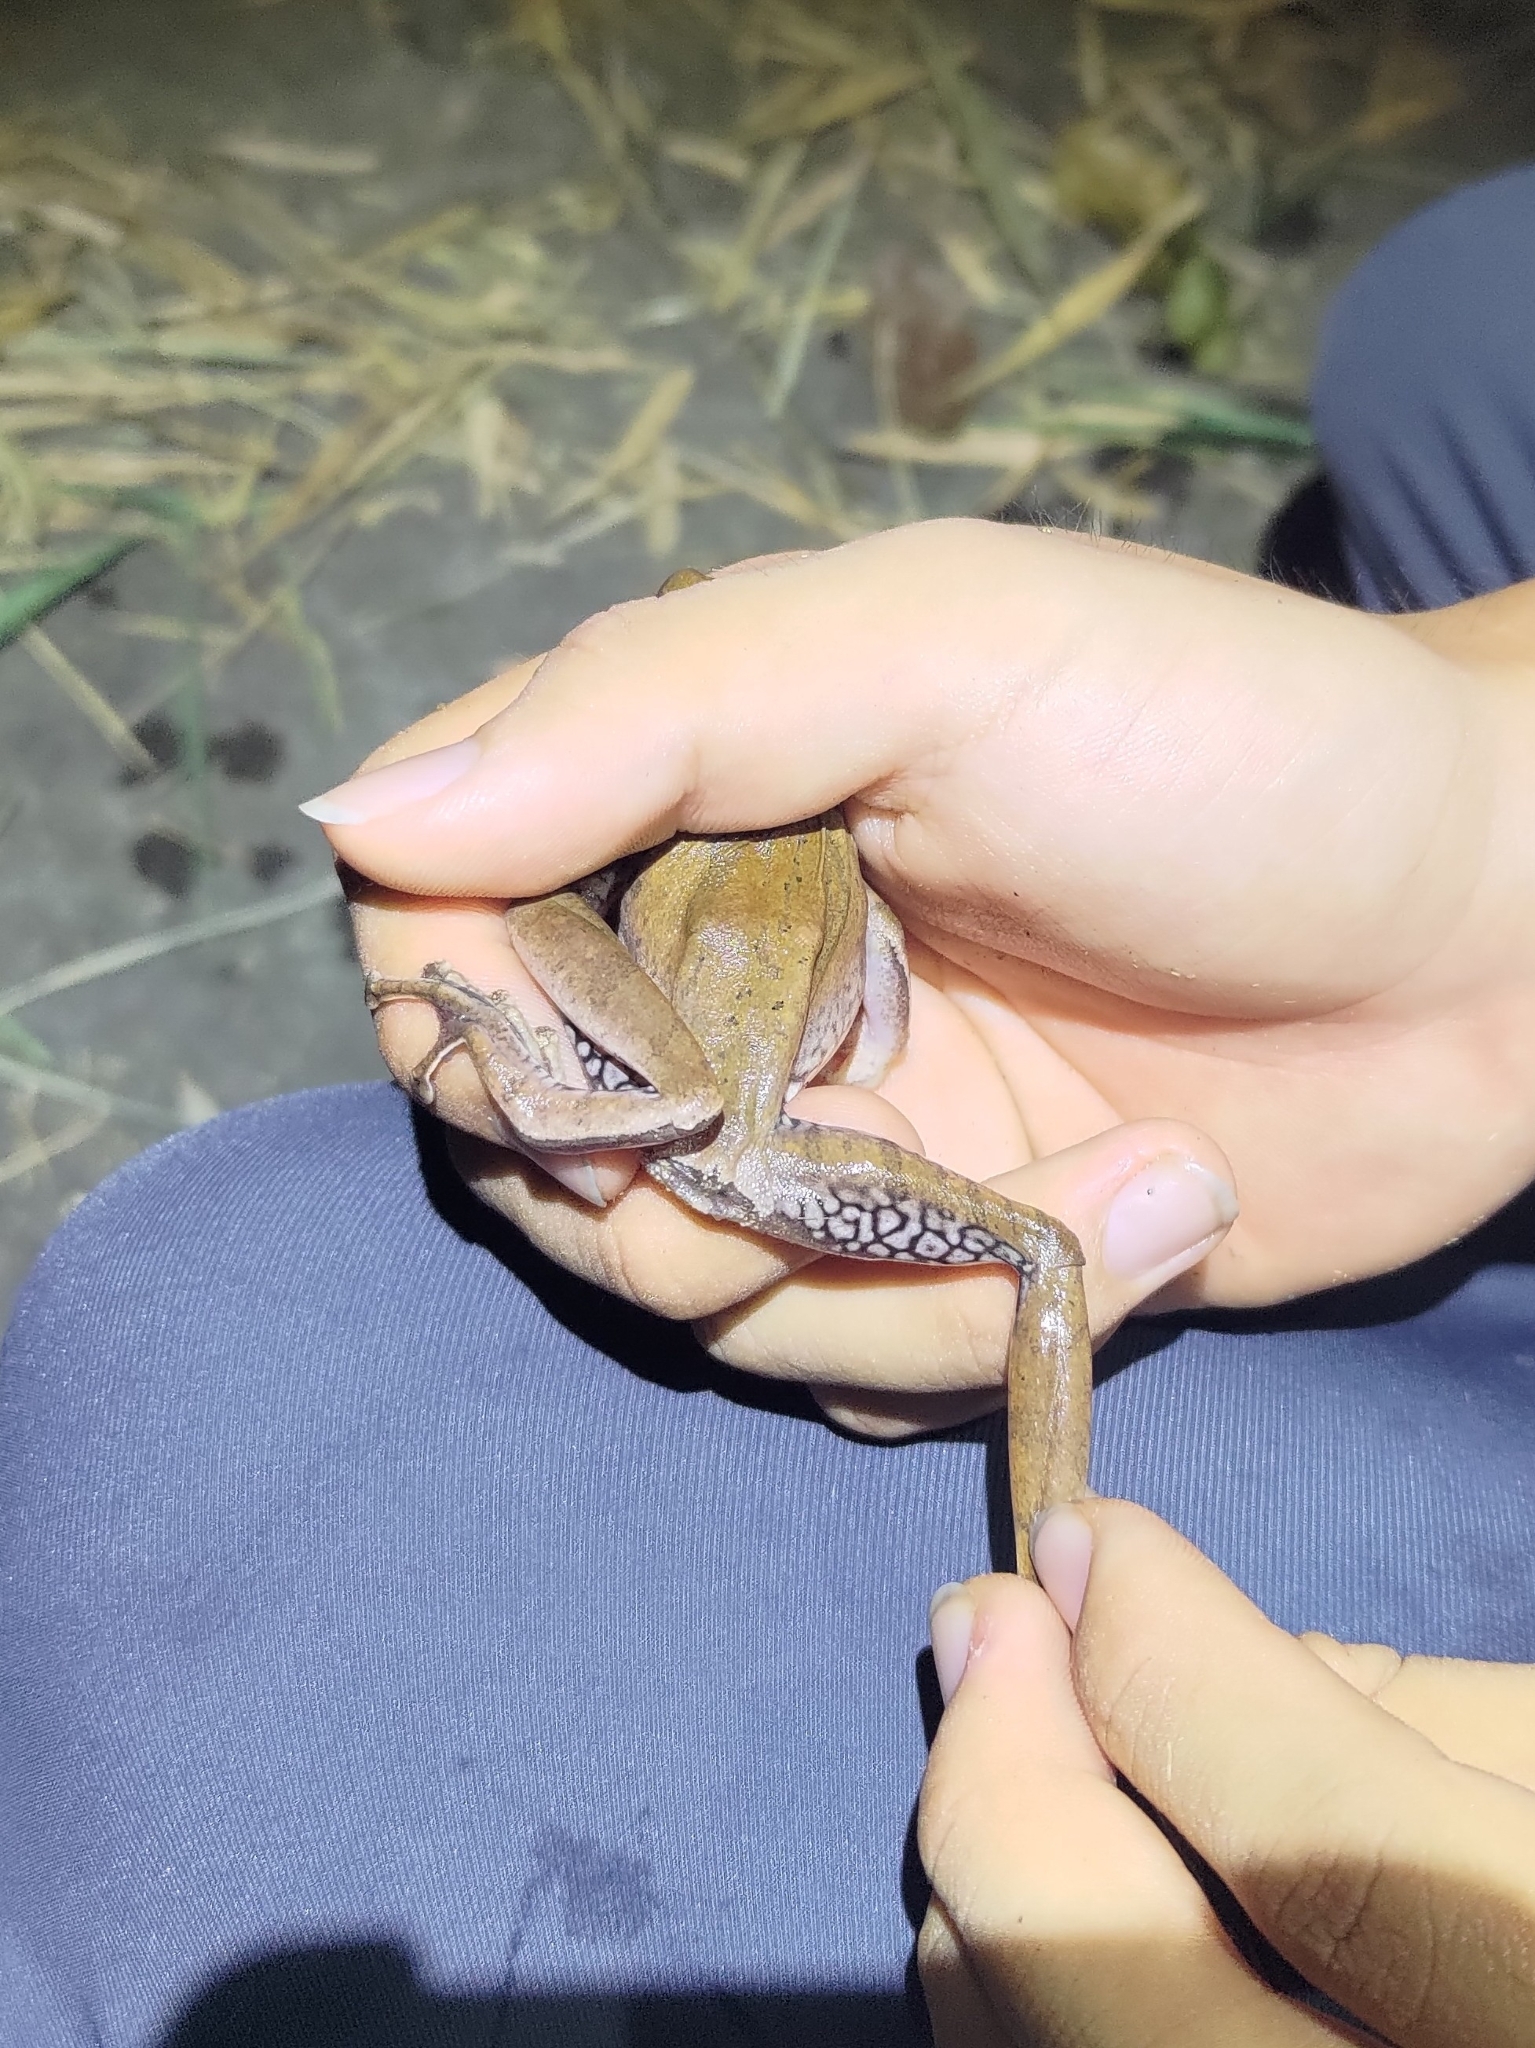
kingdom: Animalia
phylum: Chordata
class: Amphibia
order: Anura
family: Rhacophoridae
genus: Polypedates
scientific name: Polypedates braueri
